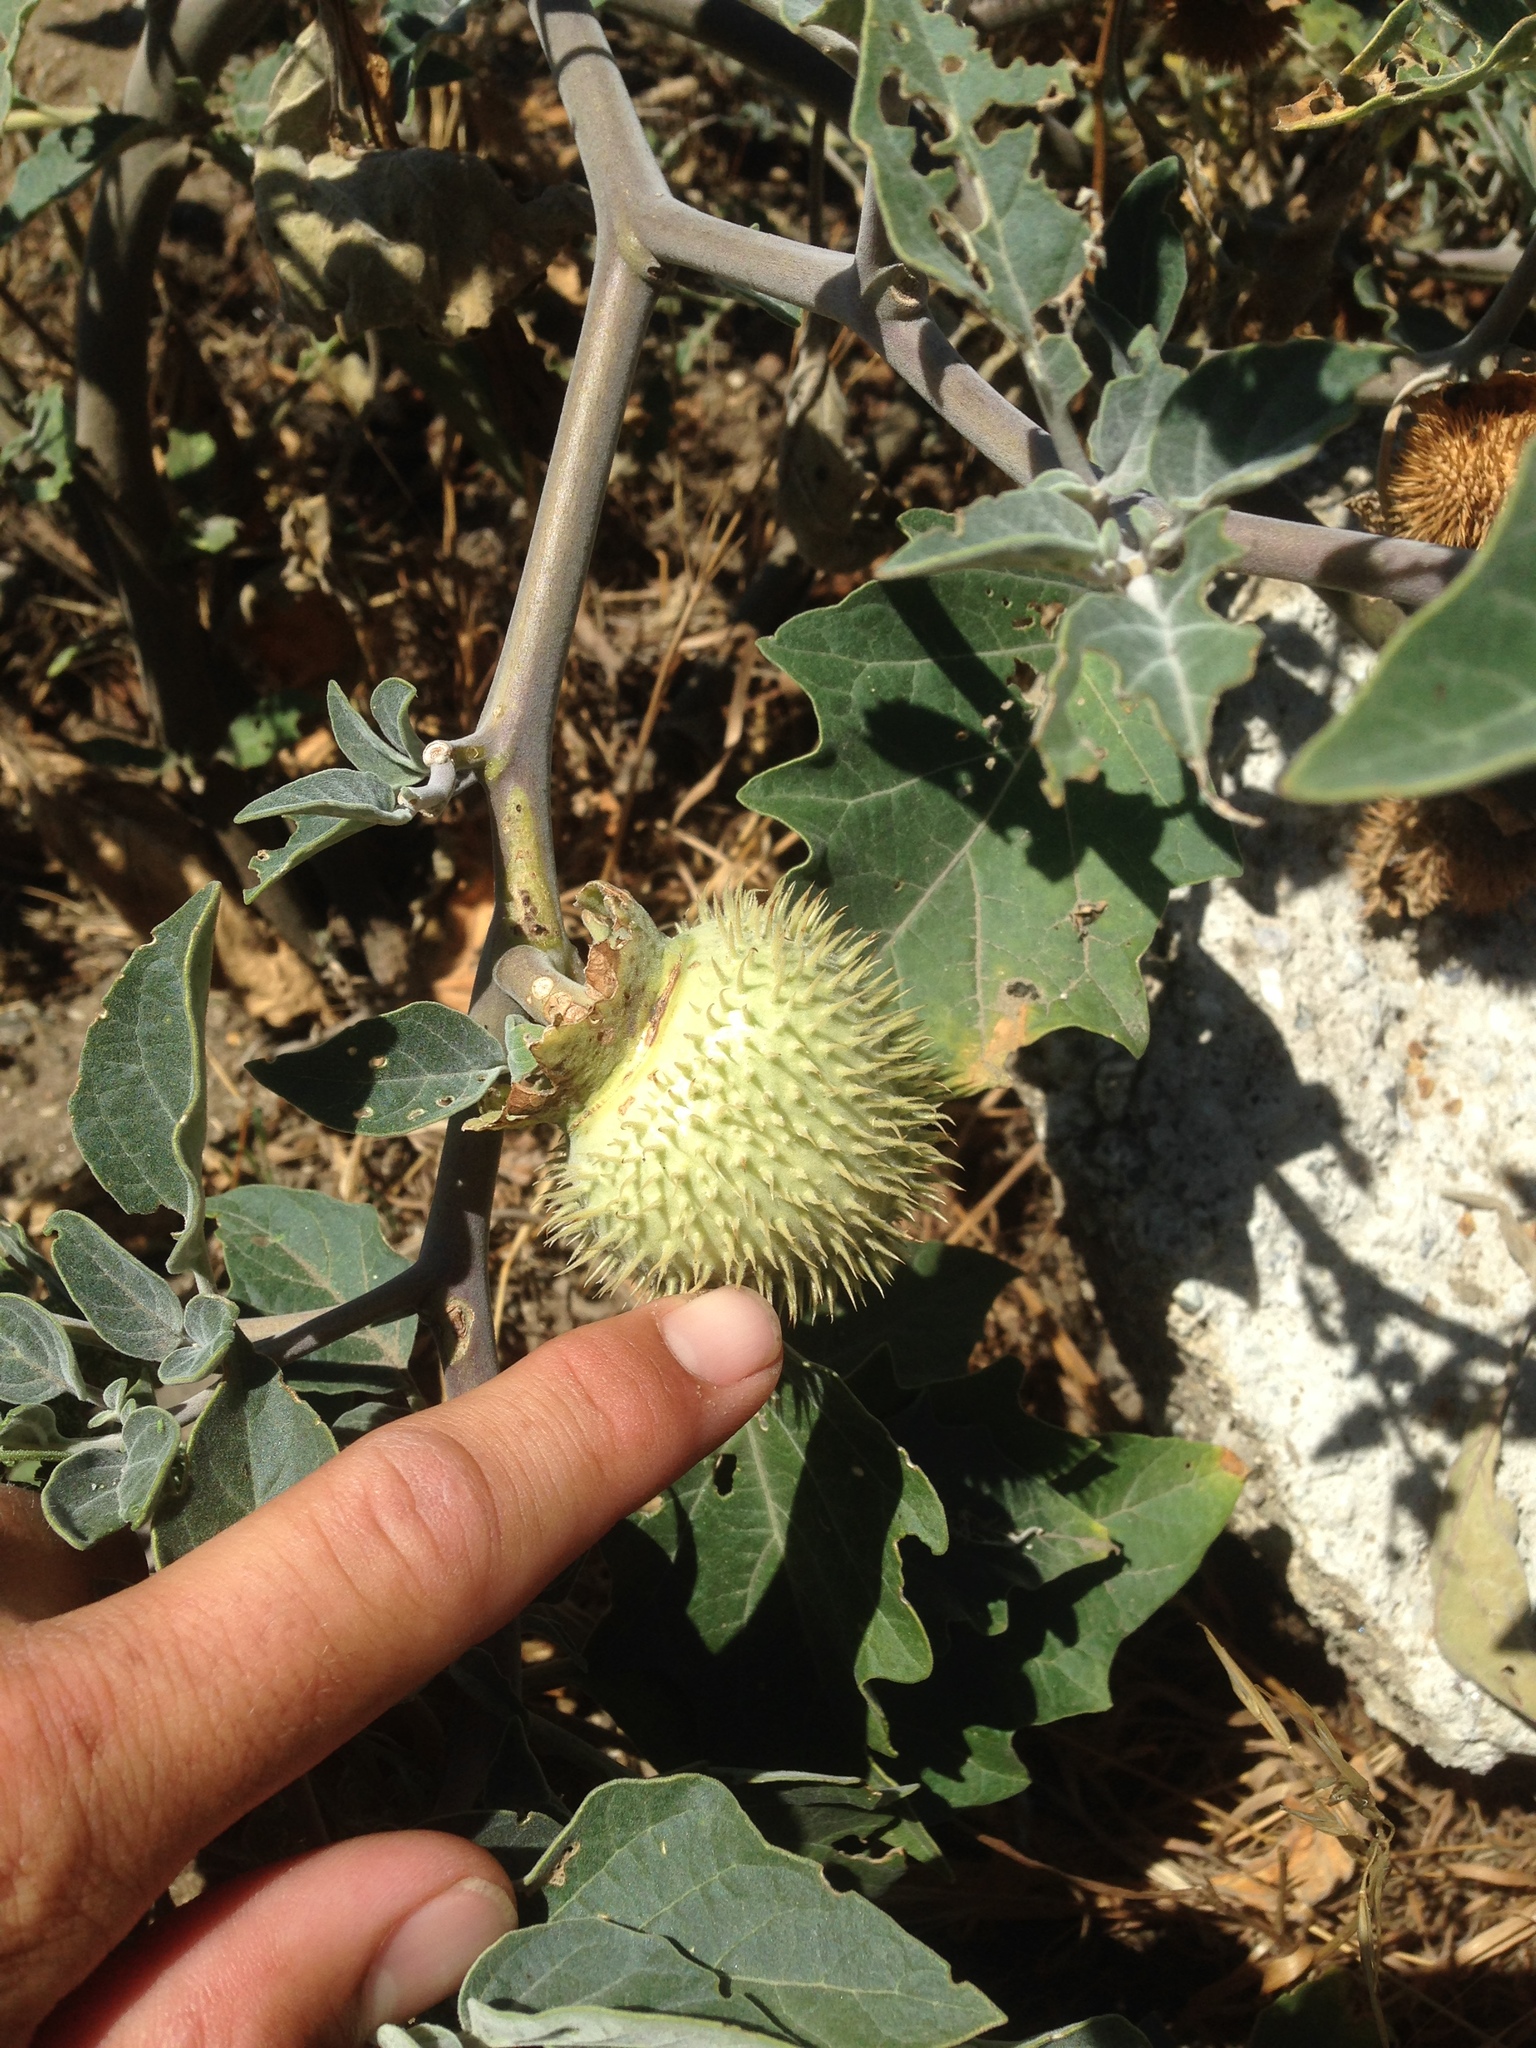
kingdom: Plantae
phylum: Tracheophyta
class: Magnoliopsida
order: Solanales
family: Solanaceae
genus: Datura
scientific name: Datura wrightii
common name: Sacred thorn-apple
